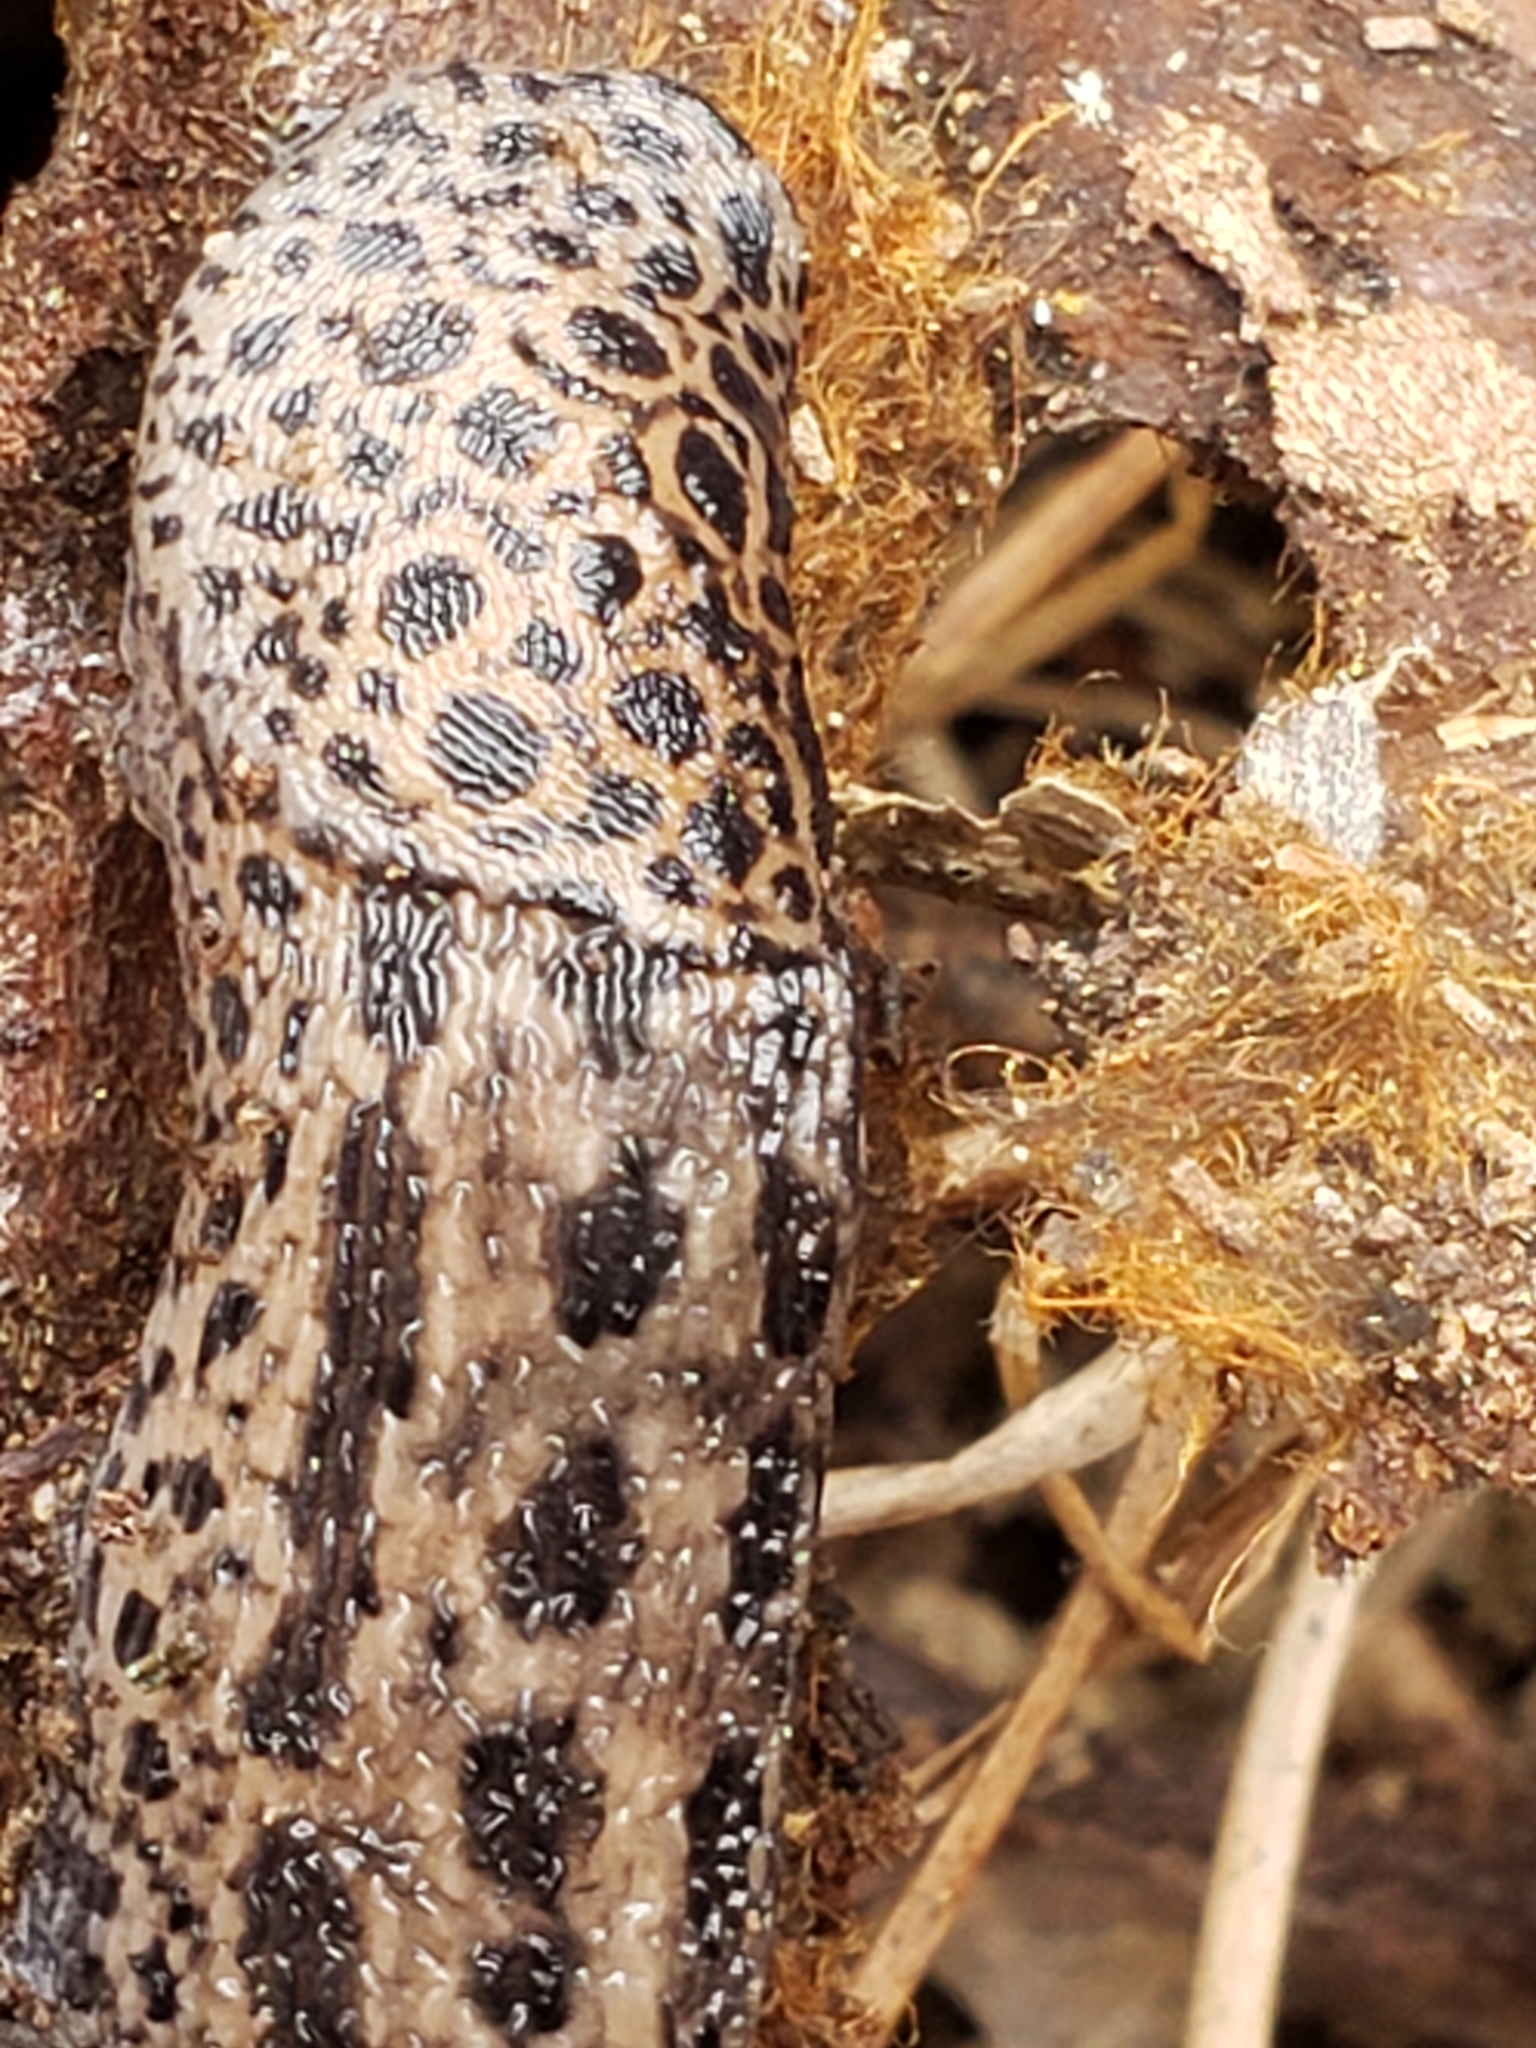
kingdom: Animalia
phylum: Mollusca
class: Gastropoda
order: Stylommatophora
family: Limacidae
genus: Limax
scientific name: Limax maximus
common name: Great grey slug
